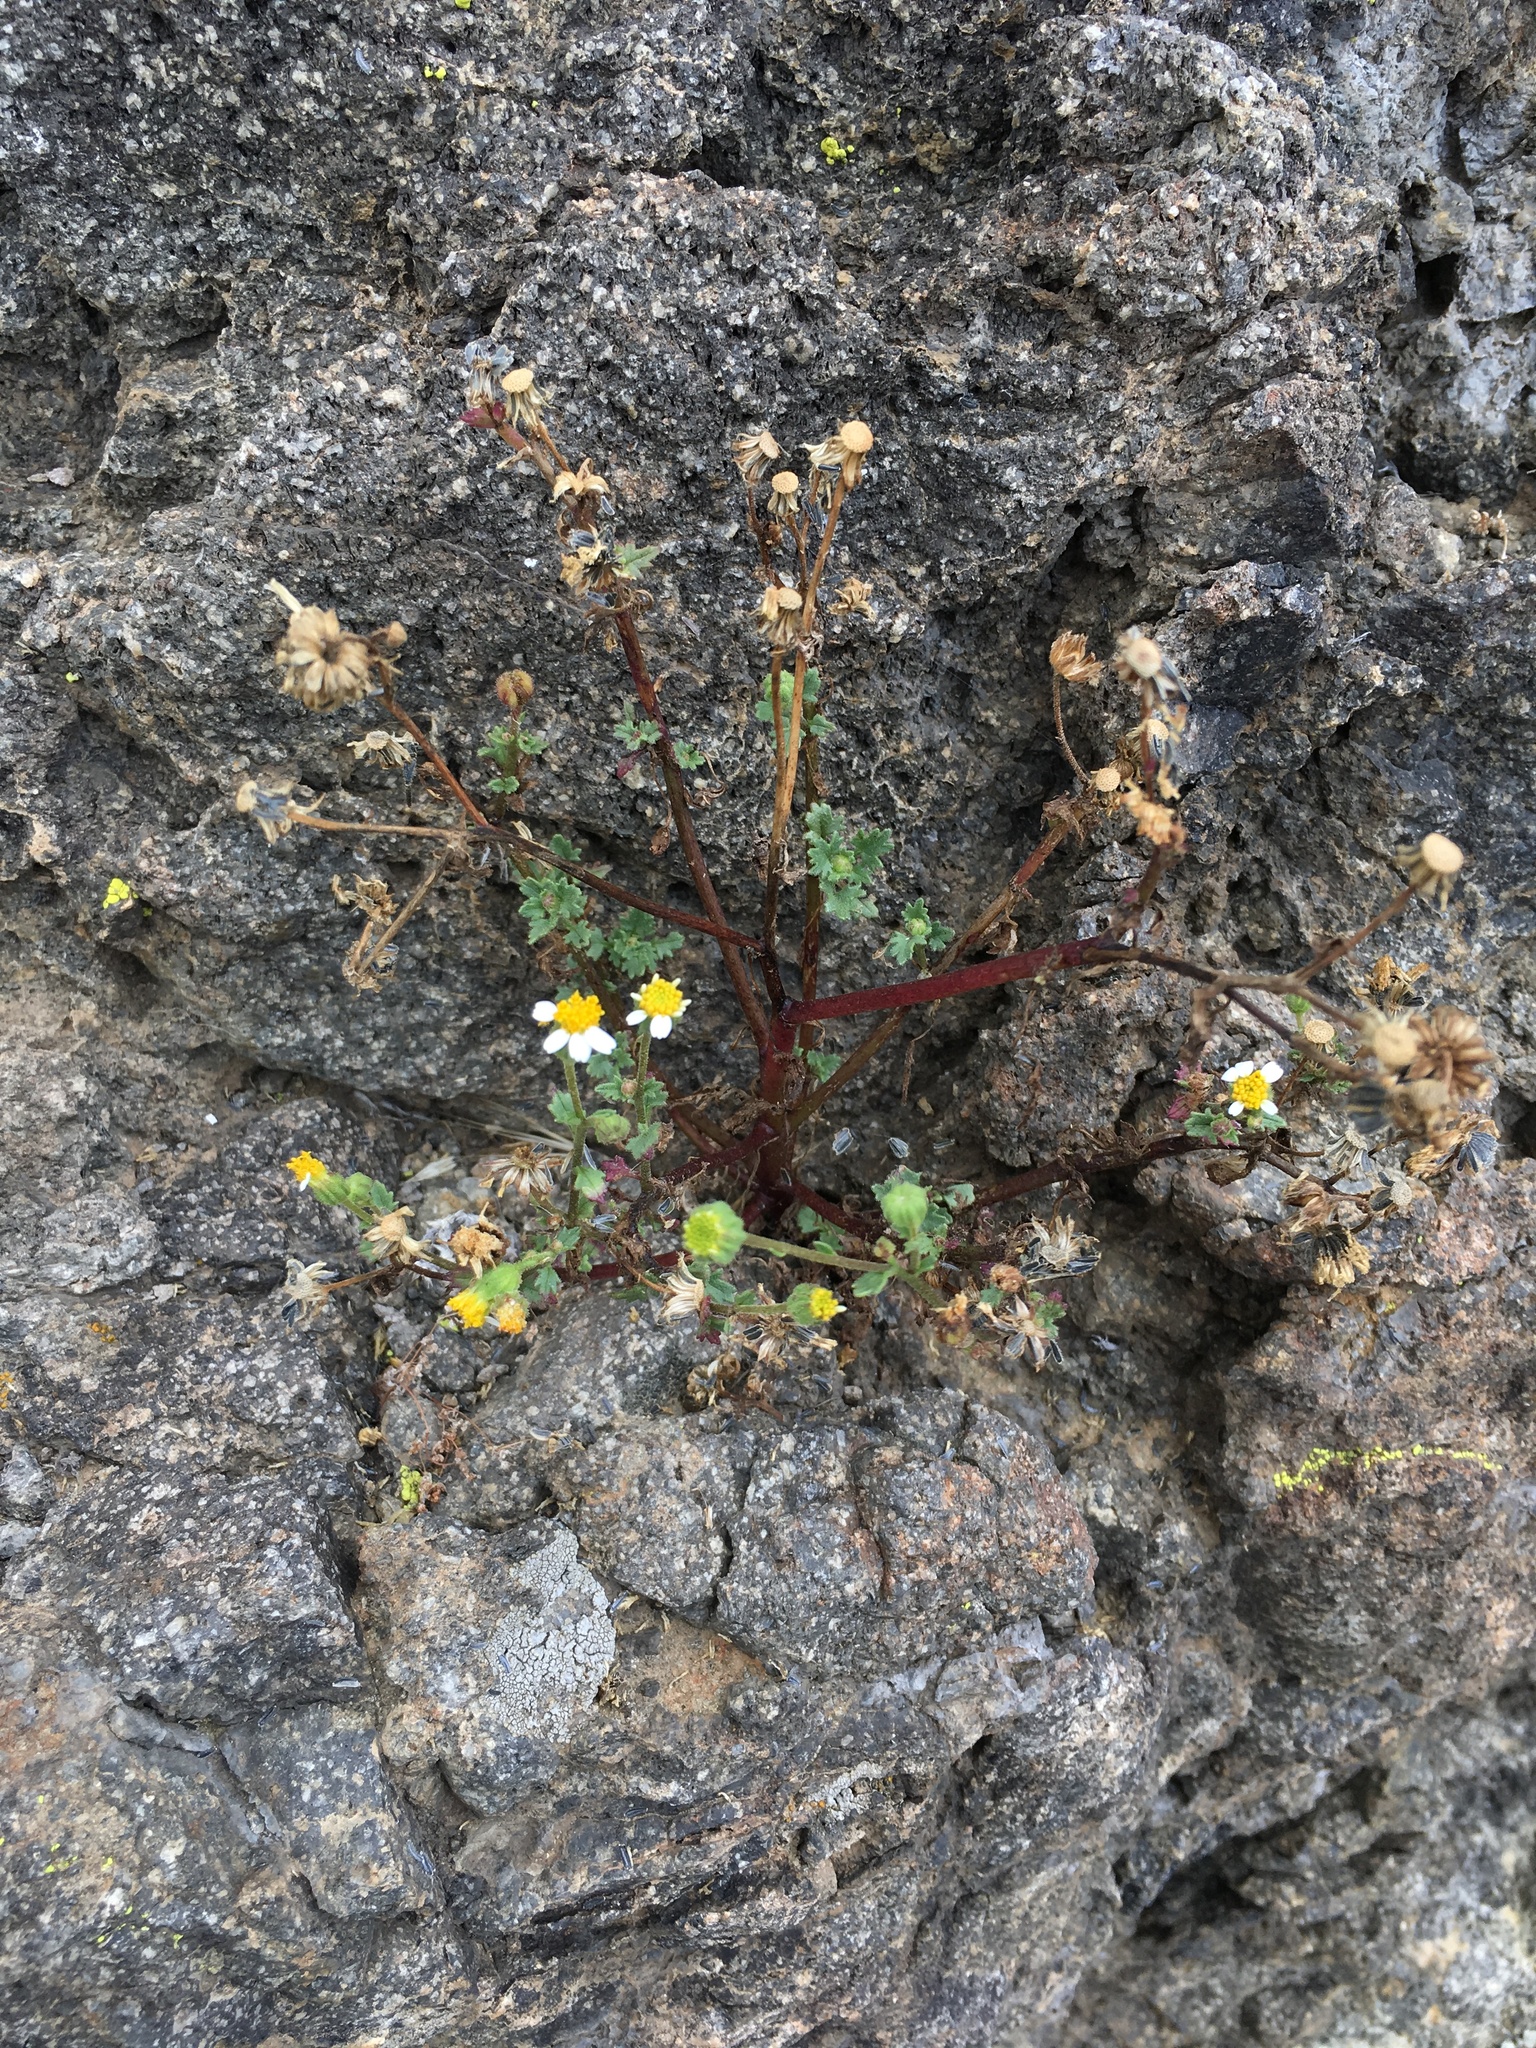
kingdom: Plantae
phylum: Tracheophyta
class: Magnoliopsida
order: Asterales
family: Asteraceae
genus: Laphamia
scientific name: Laphamia emoryi
